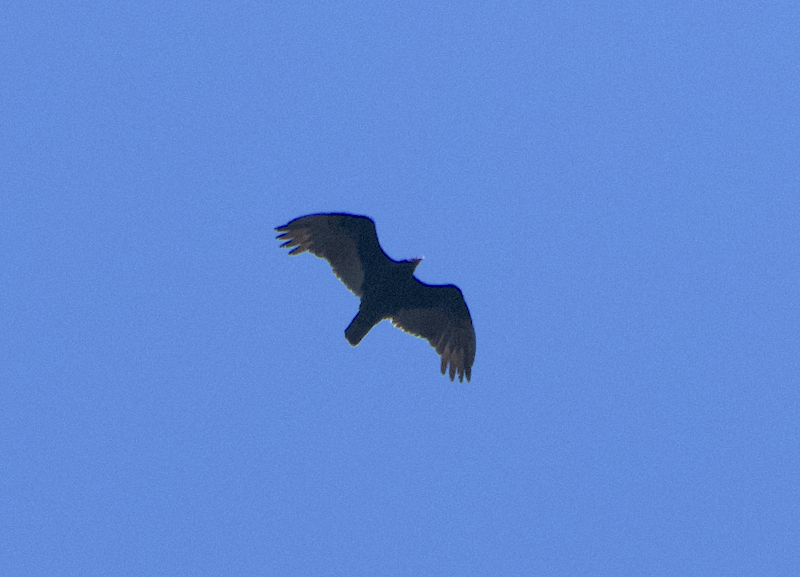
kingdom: Animalia
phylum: Chordata
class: Aves
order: Accipitriformes
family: Cathartidae
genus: Cathartes
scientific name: Cathartes aura
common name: Turkey vulture
